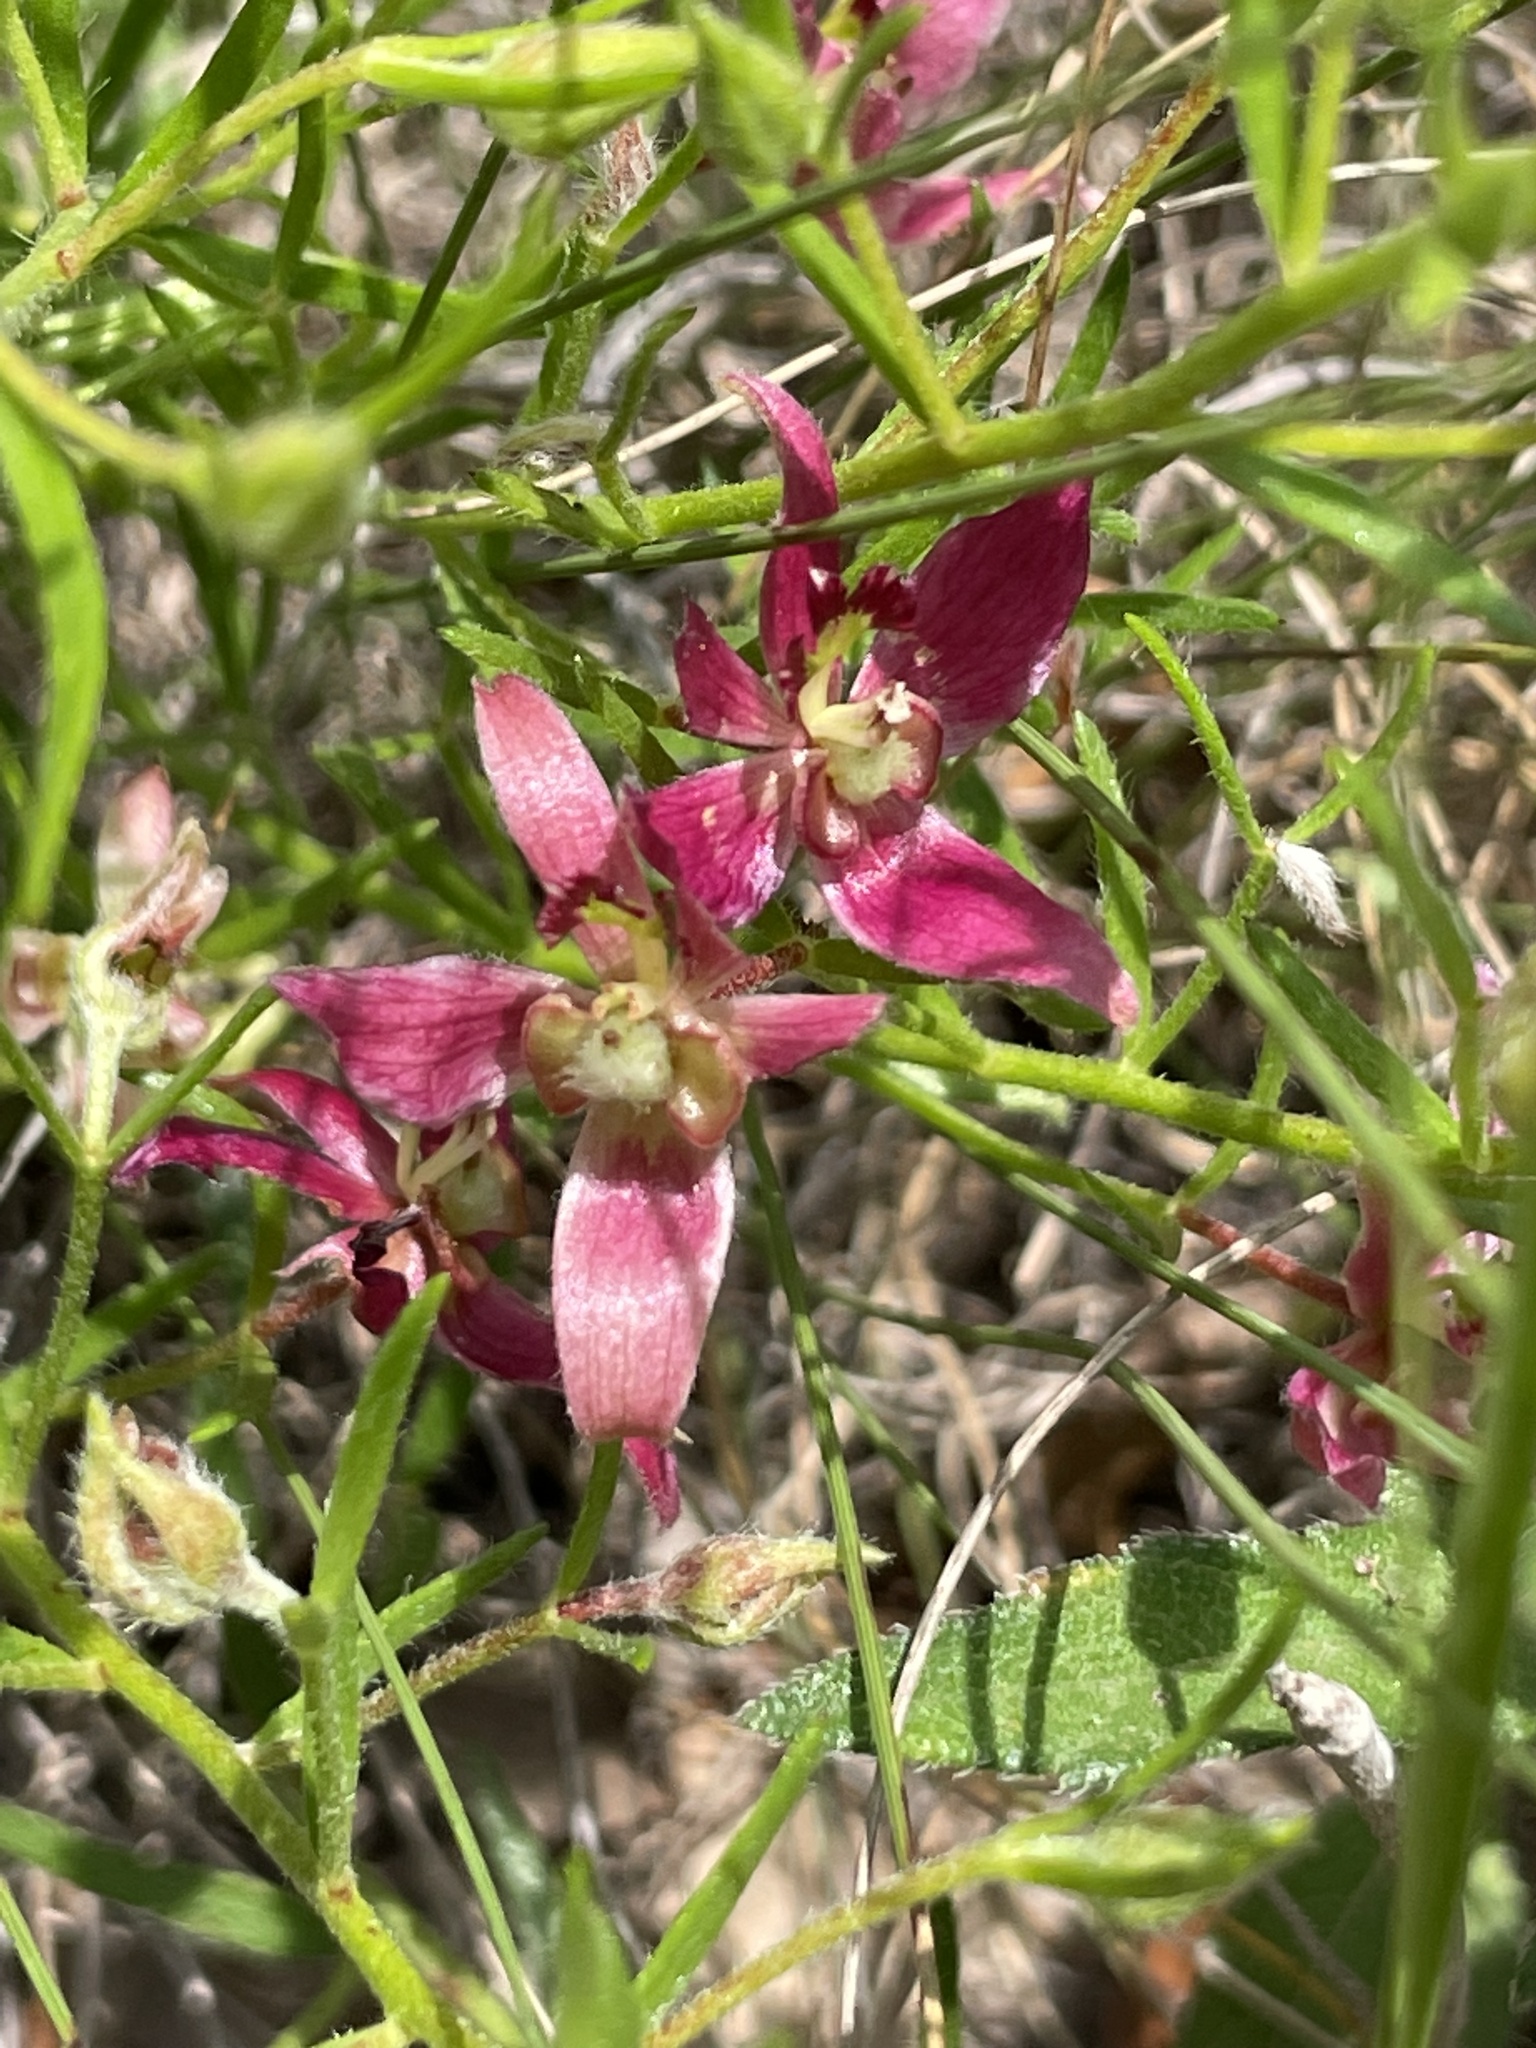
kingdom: Plantae
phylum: Tracheophyta
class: Magnoliopsida
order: Zygophyllales
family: Krameriaceae
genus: Krameria
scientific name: Krameria lanceolata
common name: Ratany
